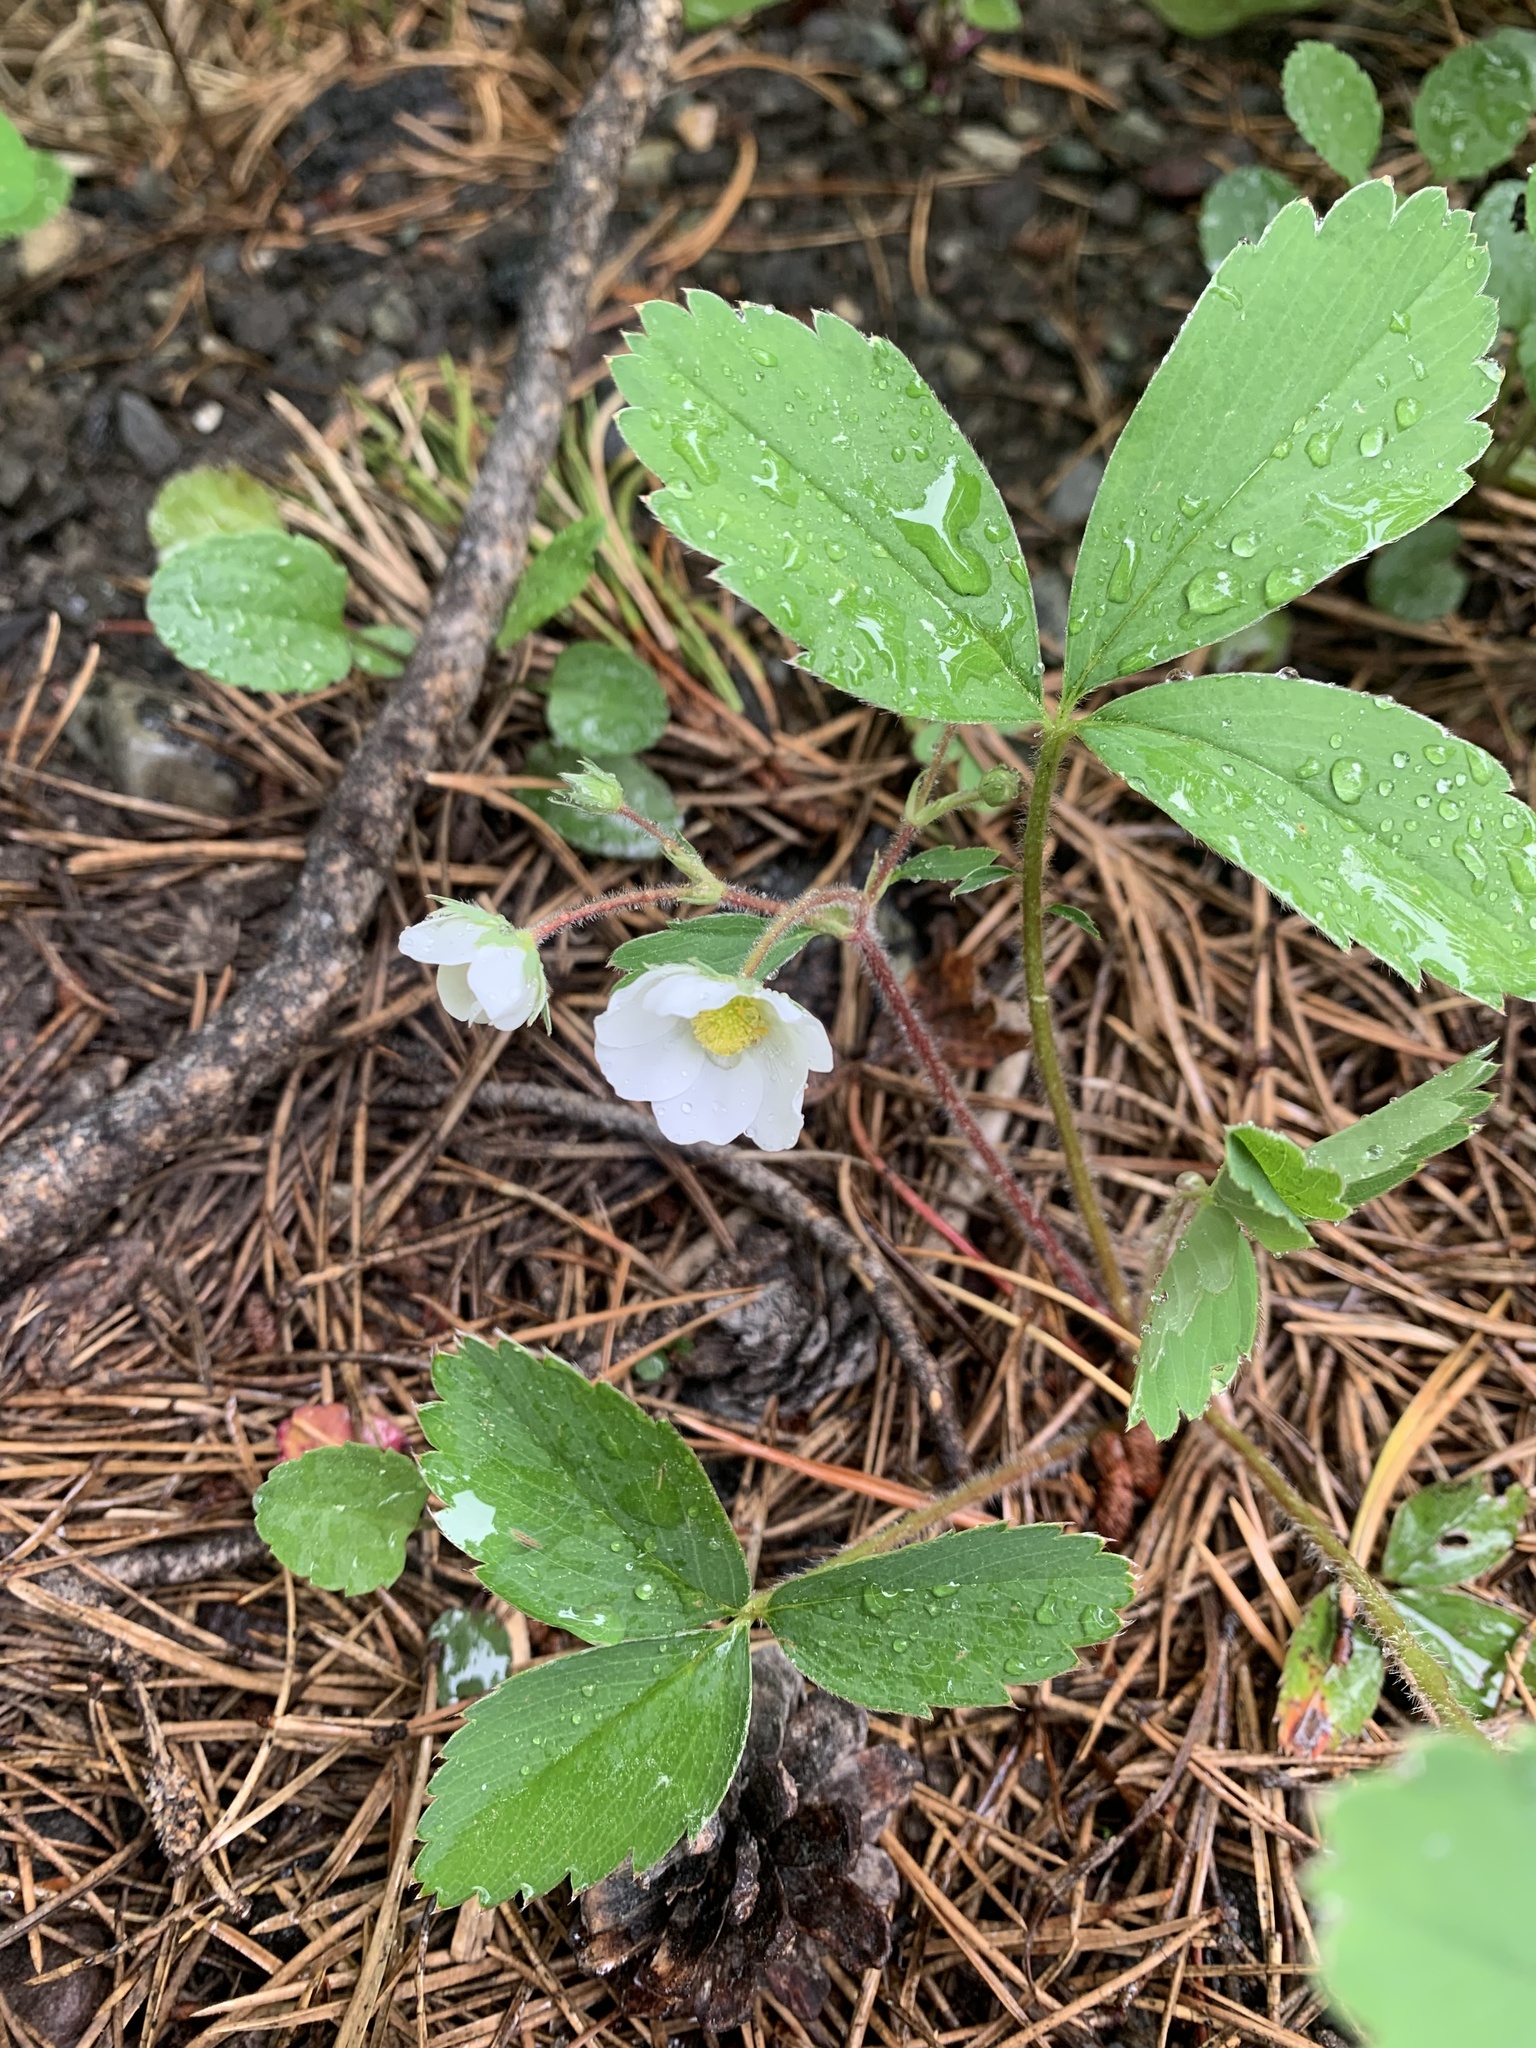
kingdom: Plantae
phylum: Tracheophyta
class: Magnoliopsida
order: Rosales
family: Rosaceae
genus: Fragaria
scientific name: Fragaria virginiana
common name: Thickleaved wild strawberry
